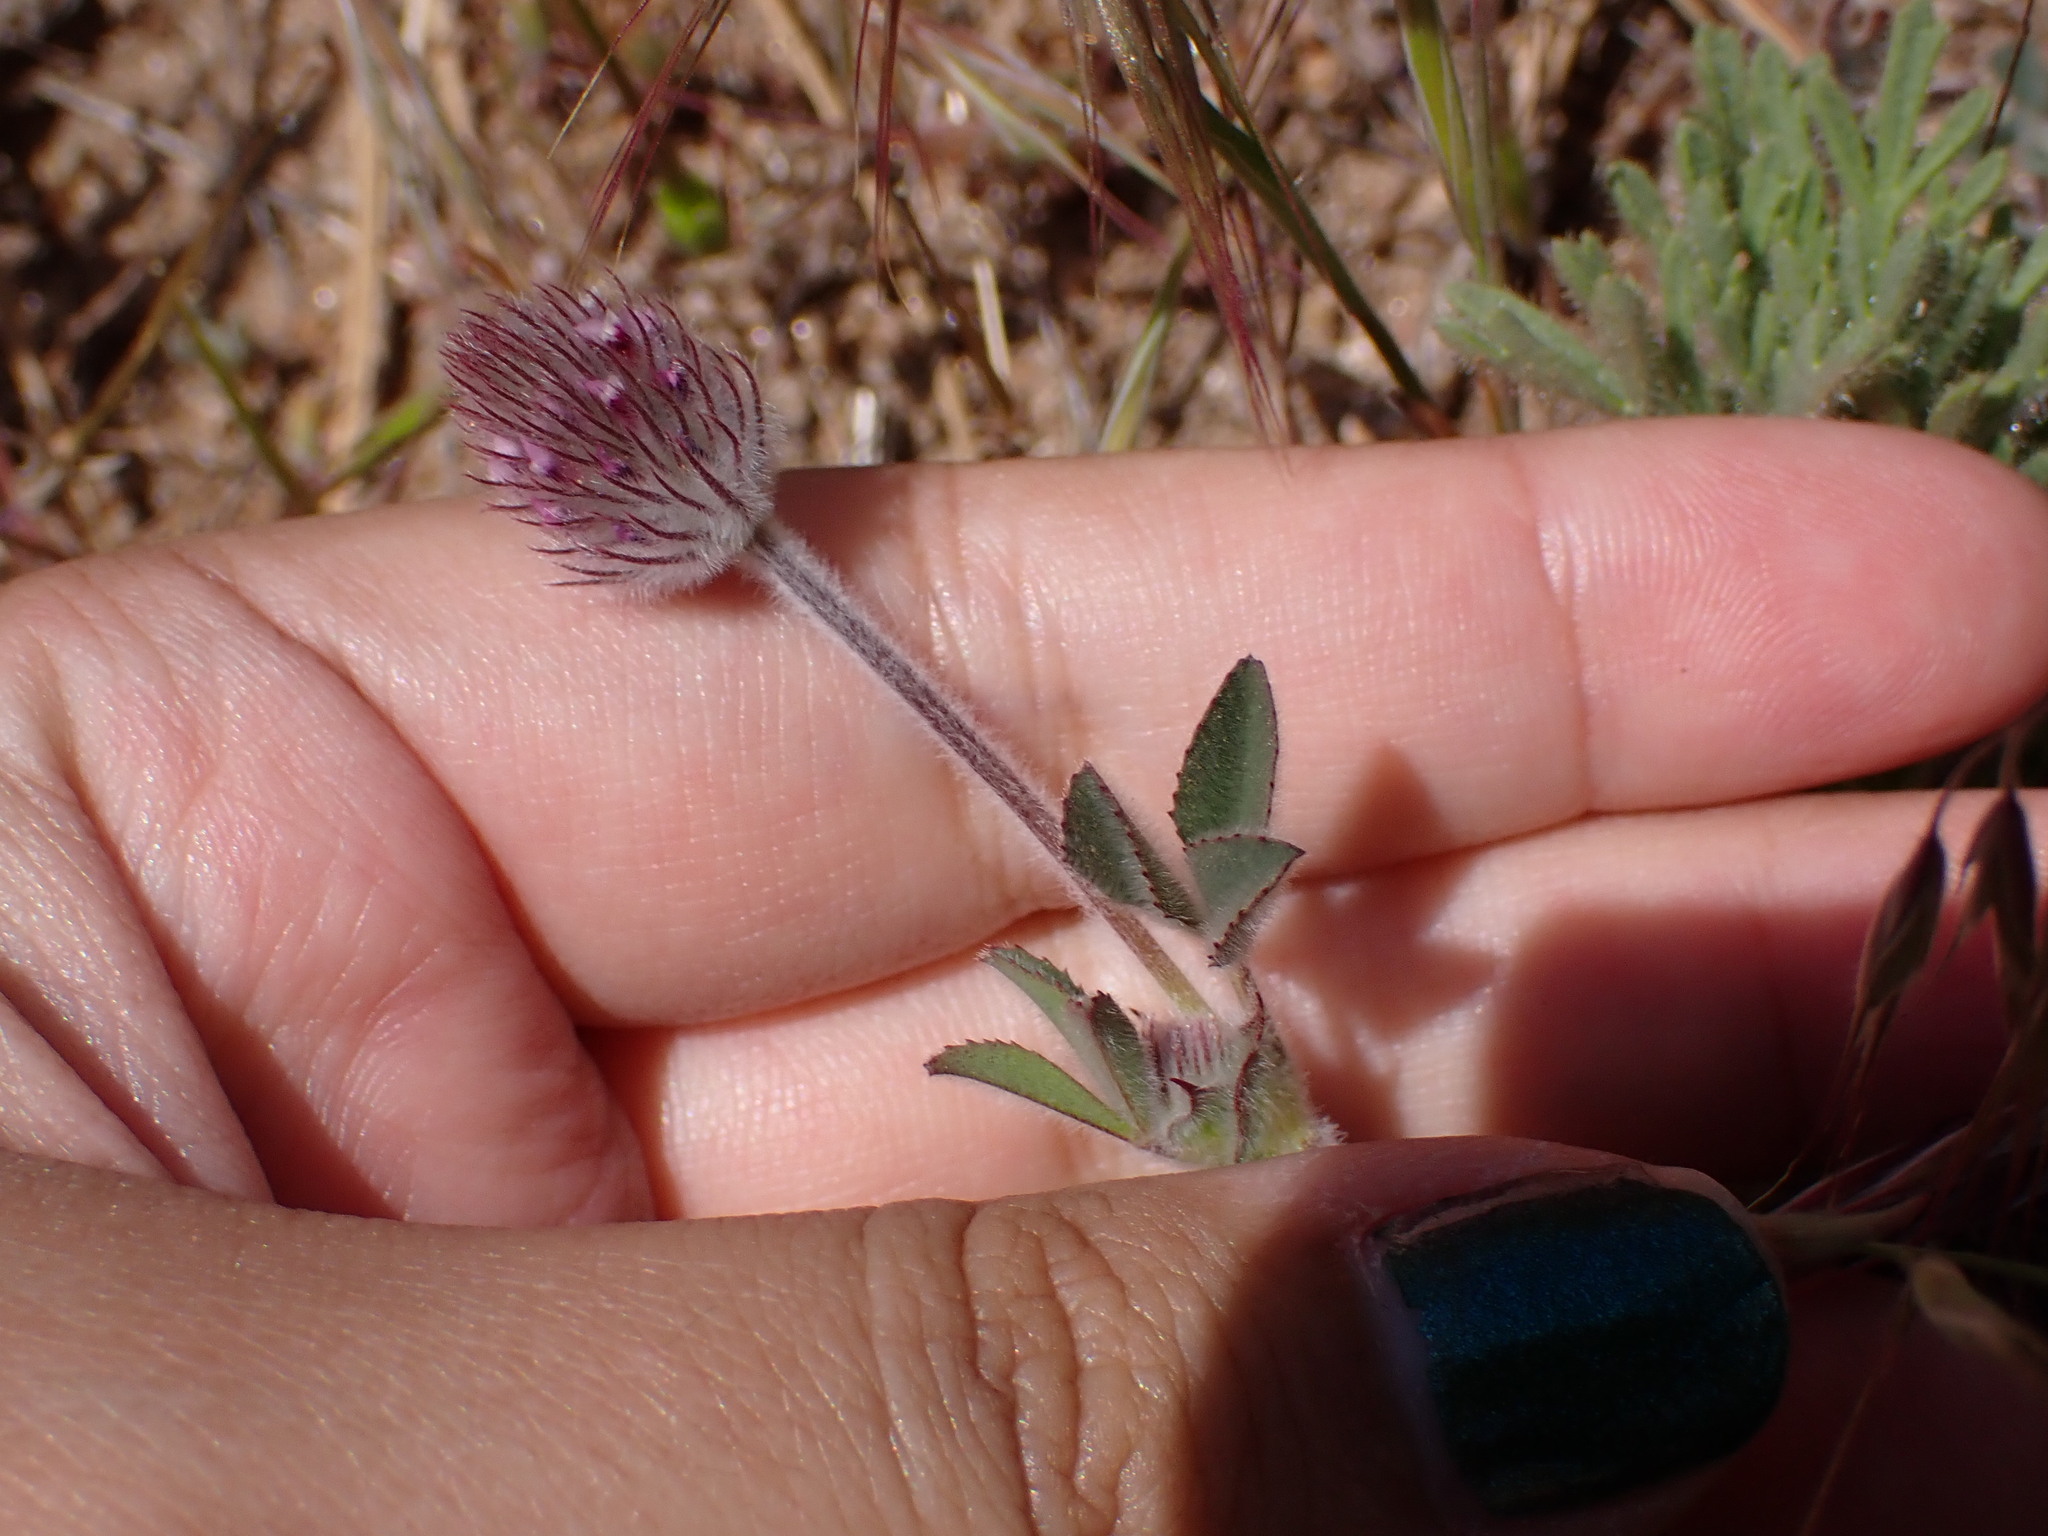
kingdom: Plantae
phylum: Tracheophyta
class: Magnoliopsida
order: Fabales
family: Fabaceae
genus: Trifolium
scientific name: Trifolium albopurpureum
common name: Rancheria clover
